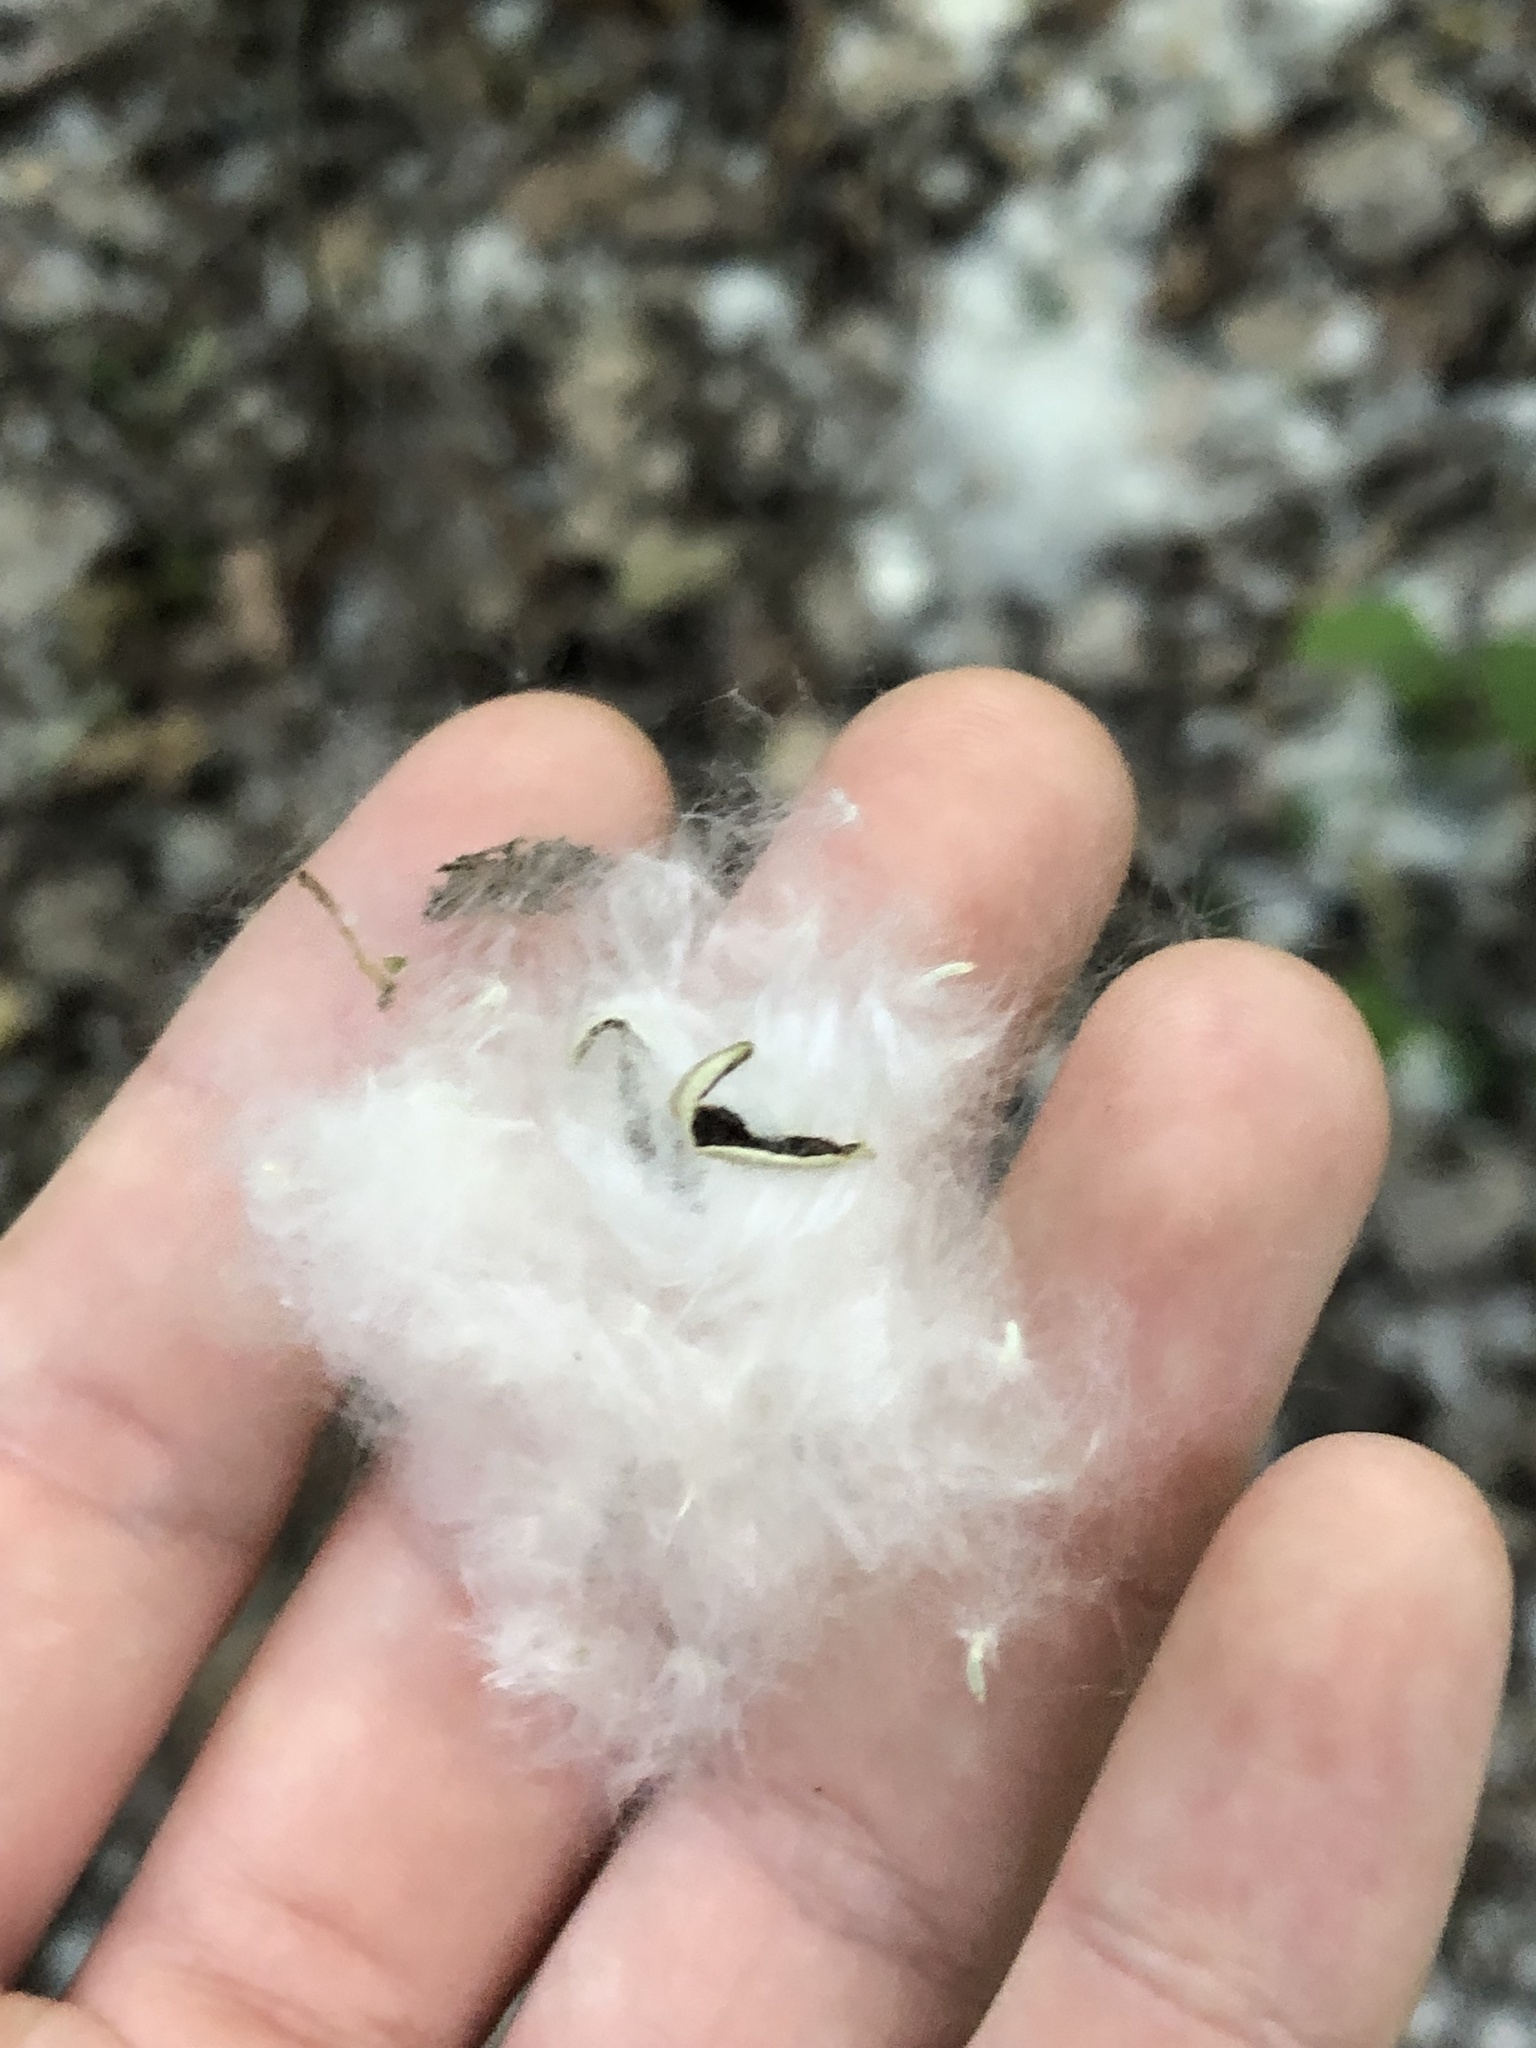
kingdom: Plantae
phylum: Tracheophyta
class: Magnoliopsida
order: Malpighiales
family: Salicaceae
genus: Populus
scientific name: Populus deltoides
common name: Eastern cottonwood
